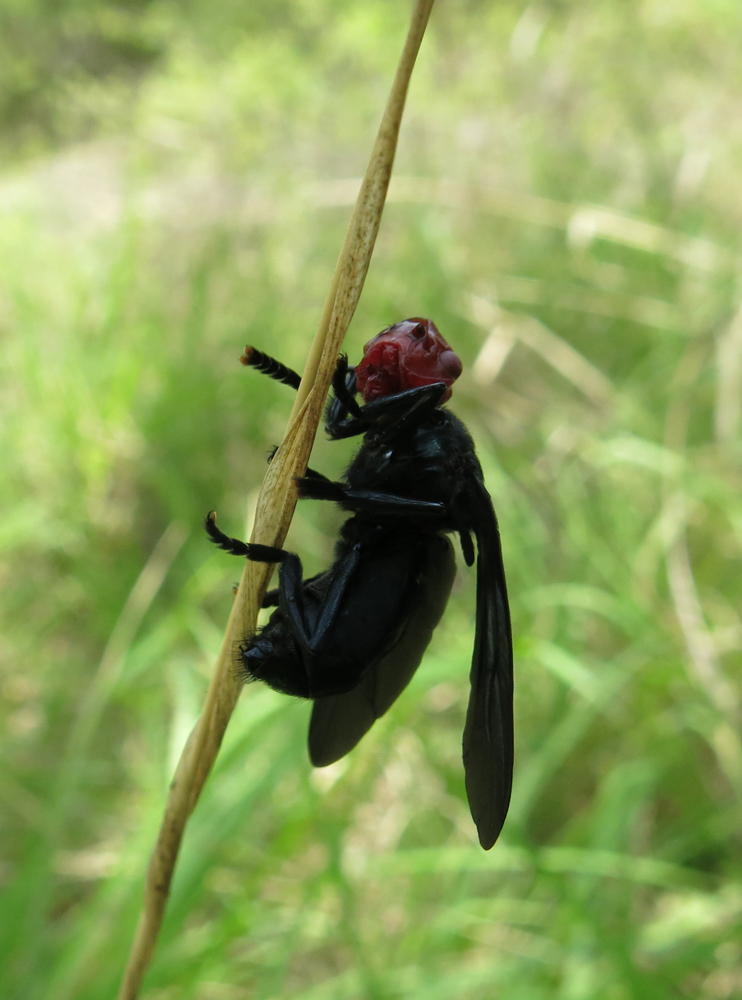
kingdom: Animalia
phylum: Arthropoda
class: Insecta
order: Diptera
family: Platystomatidae
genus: Bromophila
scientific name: Bromophila caffra
